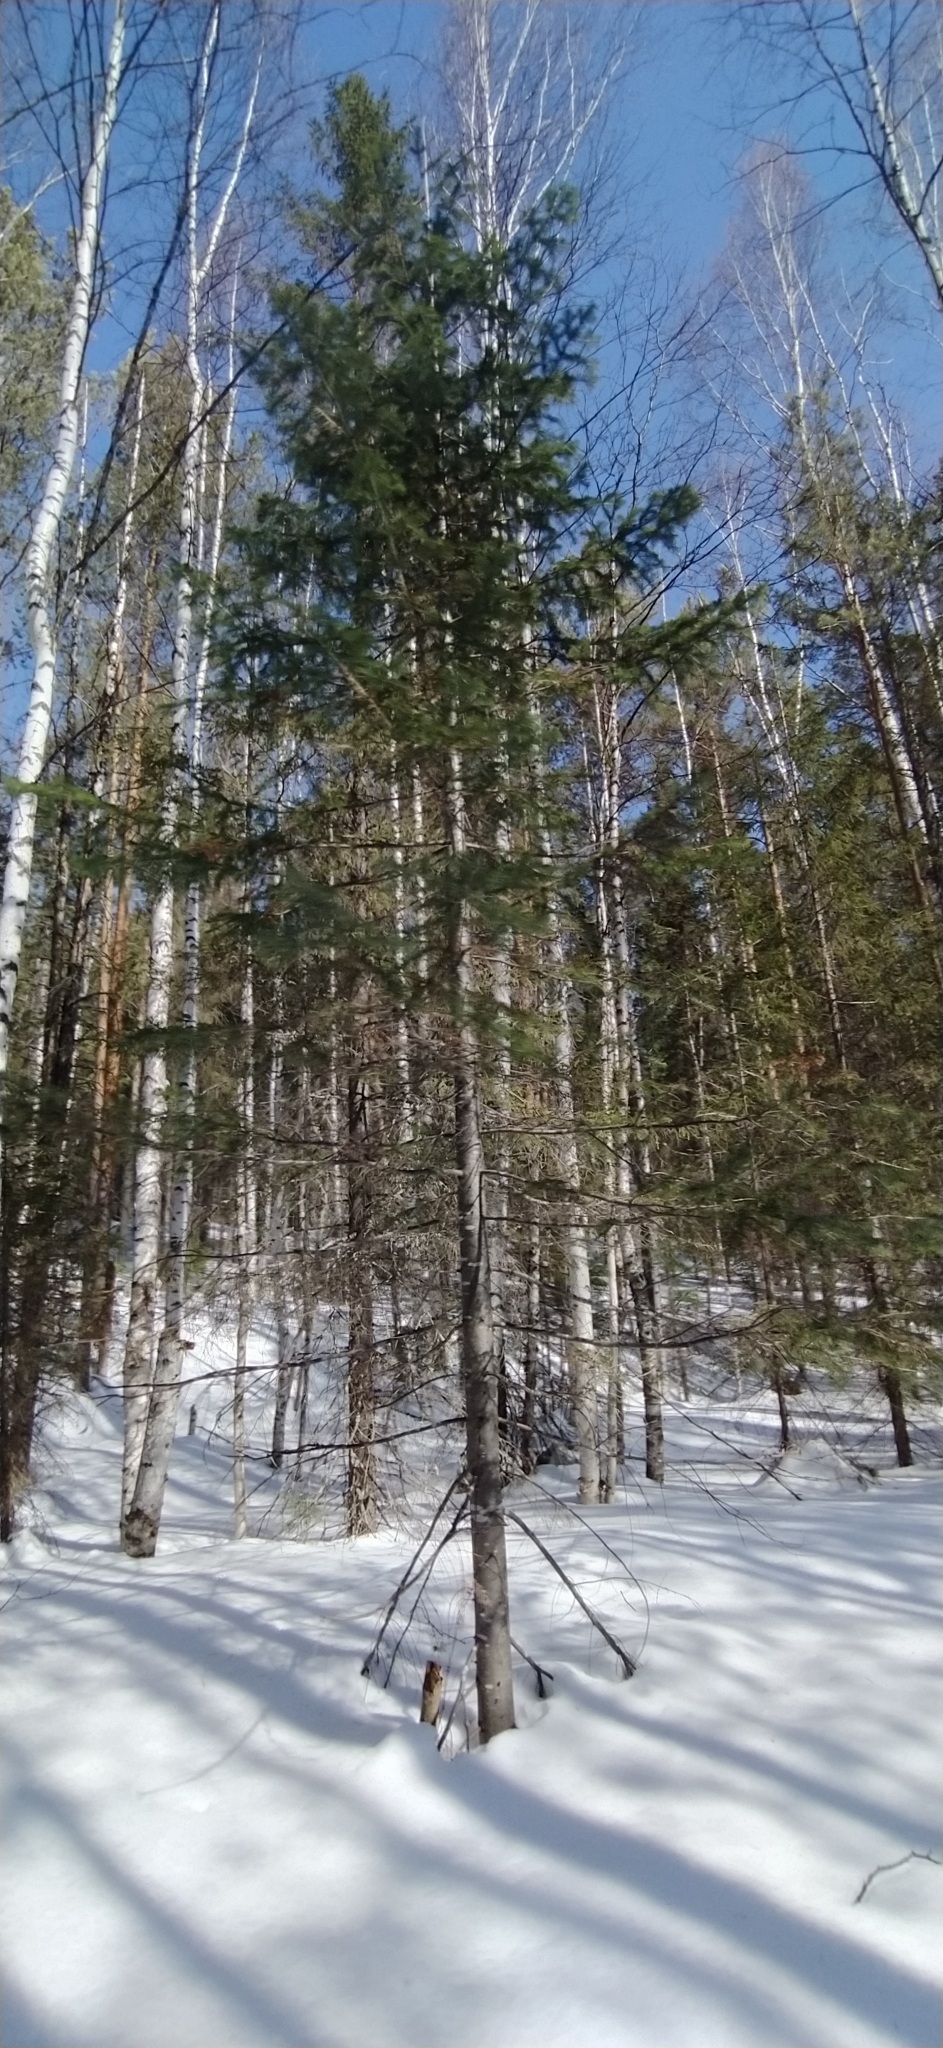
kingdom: Plantae
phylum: Tracheophyta
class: Pinopsida
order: Pinales
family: Pinaceae
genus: Abies
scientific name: Abies sibirica
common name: Siberian fir
